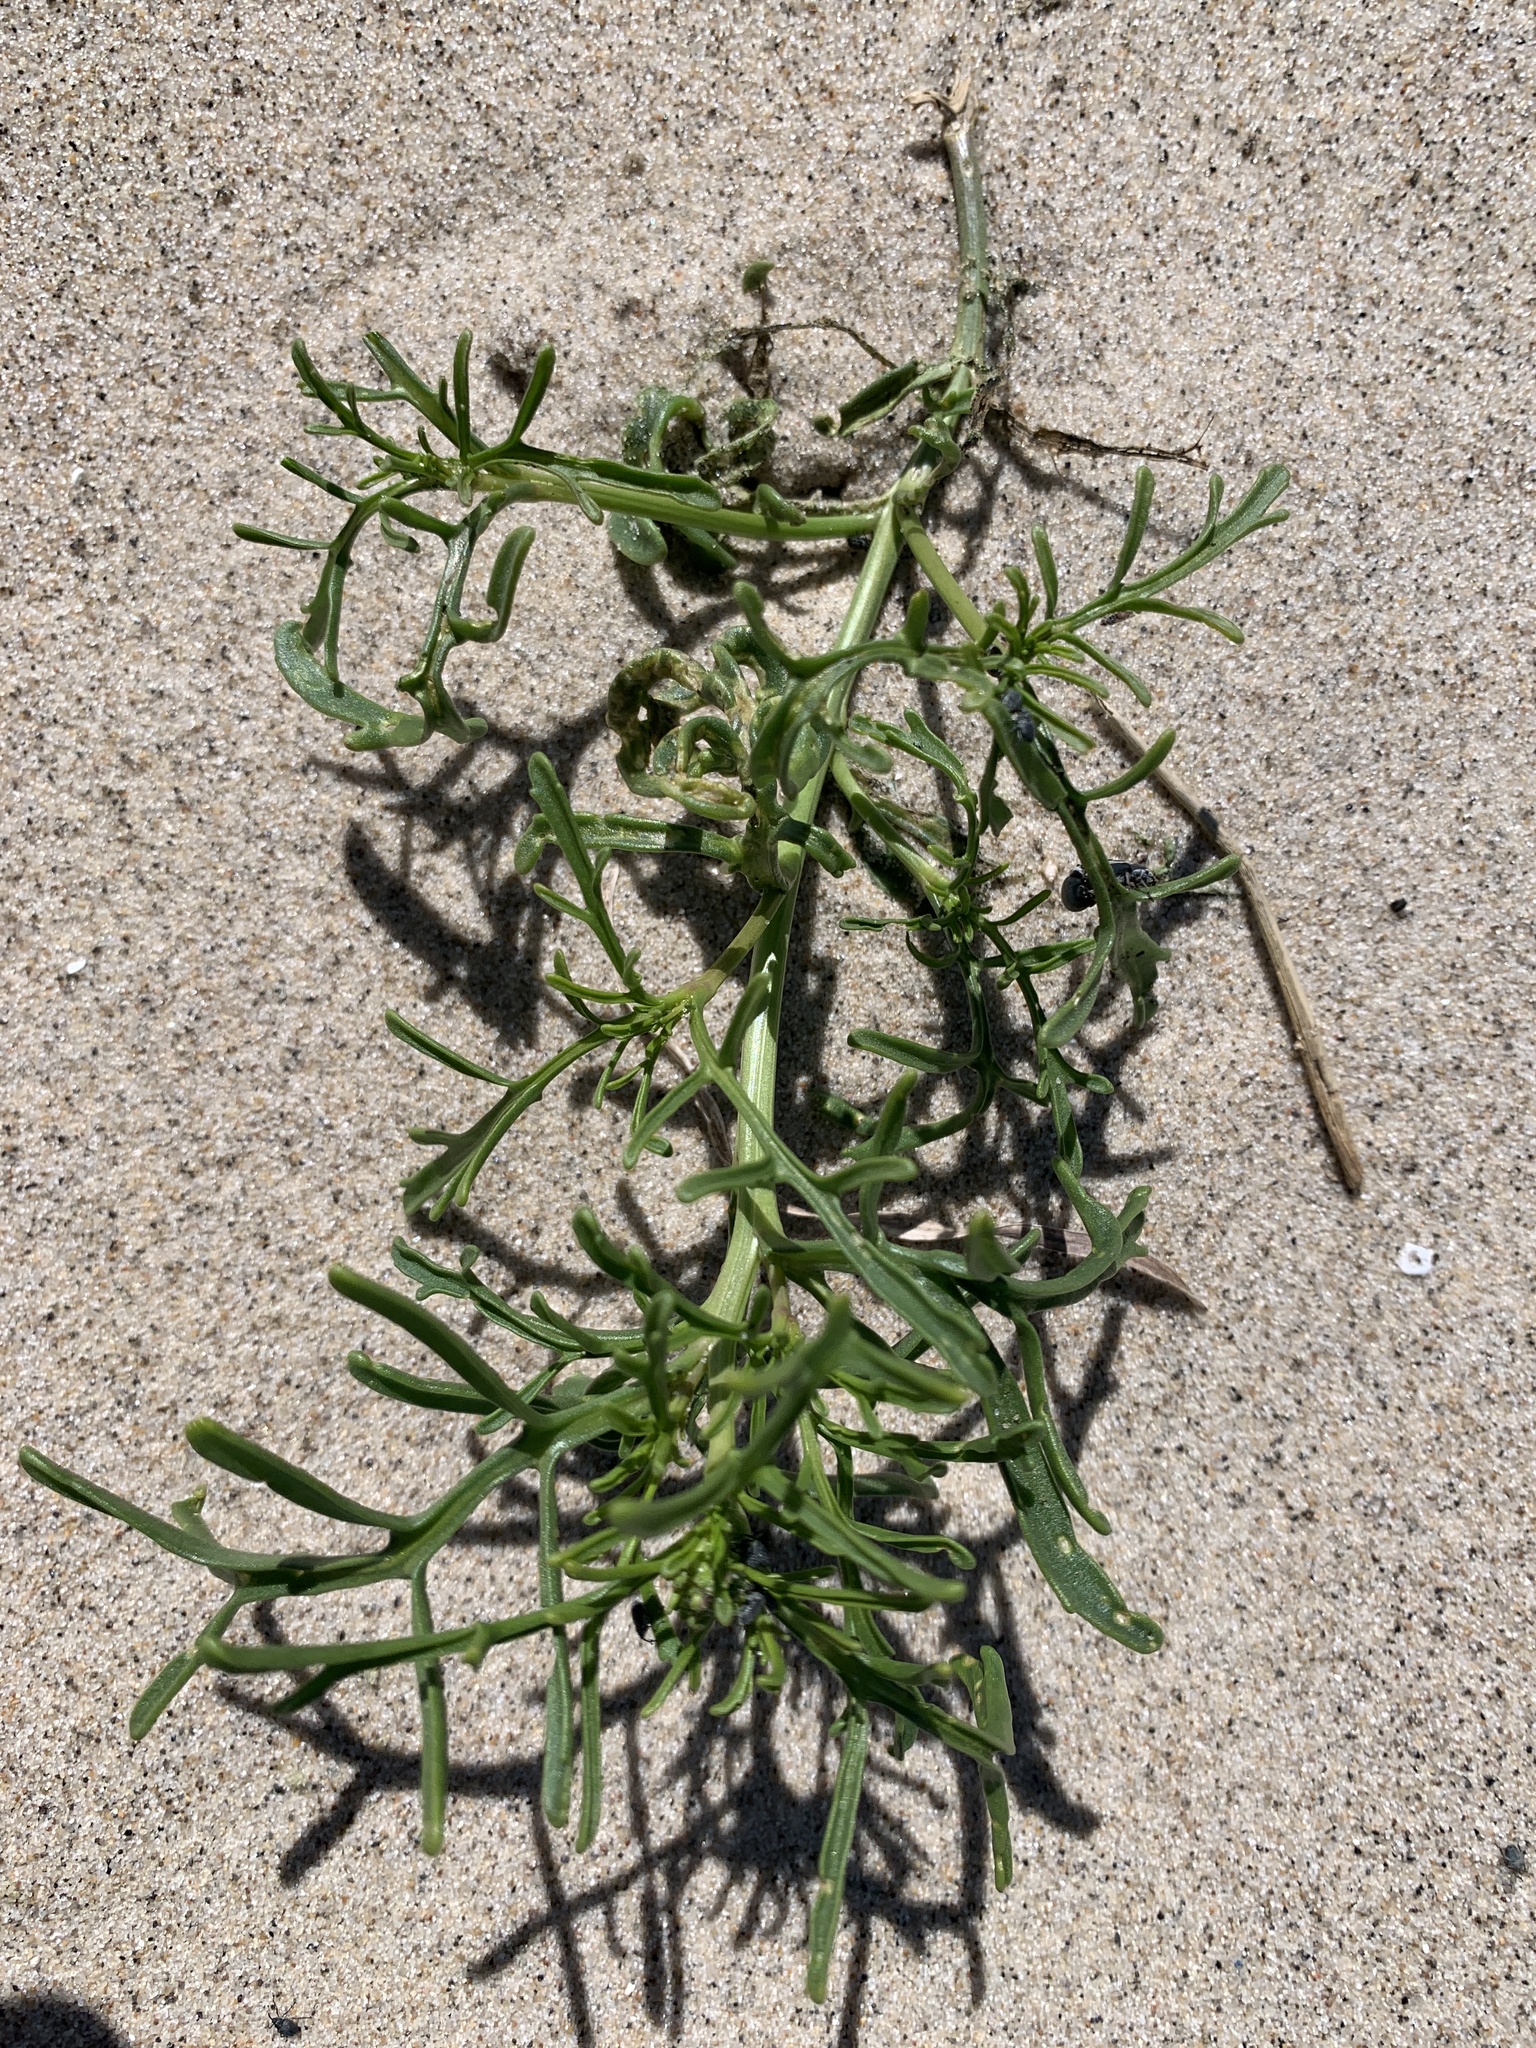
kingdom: Plantae
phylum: Tracheophyta
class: Magnoliopsida
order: Brassicales
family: Brassicaceae
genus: Cakile
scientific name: Cakile maritima
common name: Sea rocket
